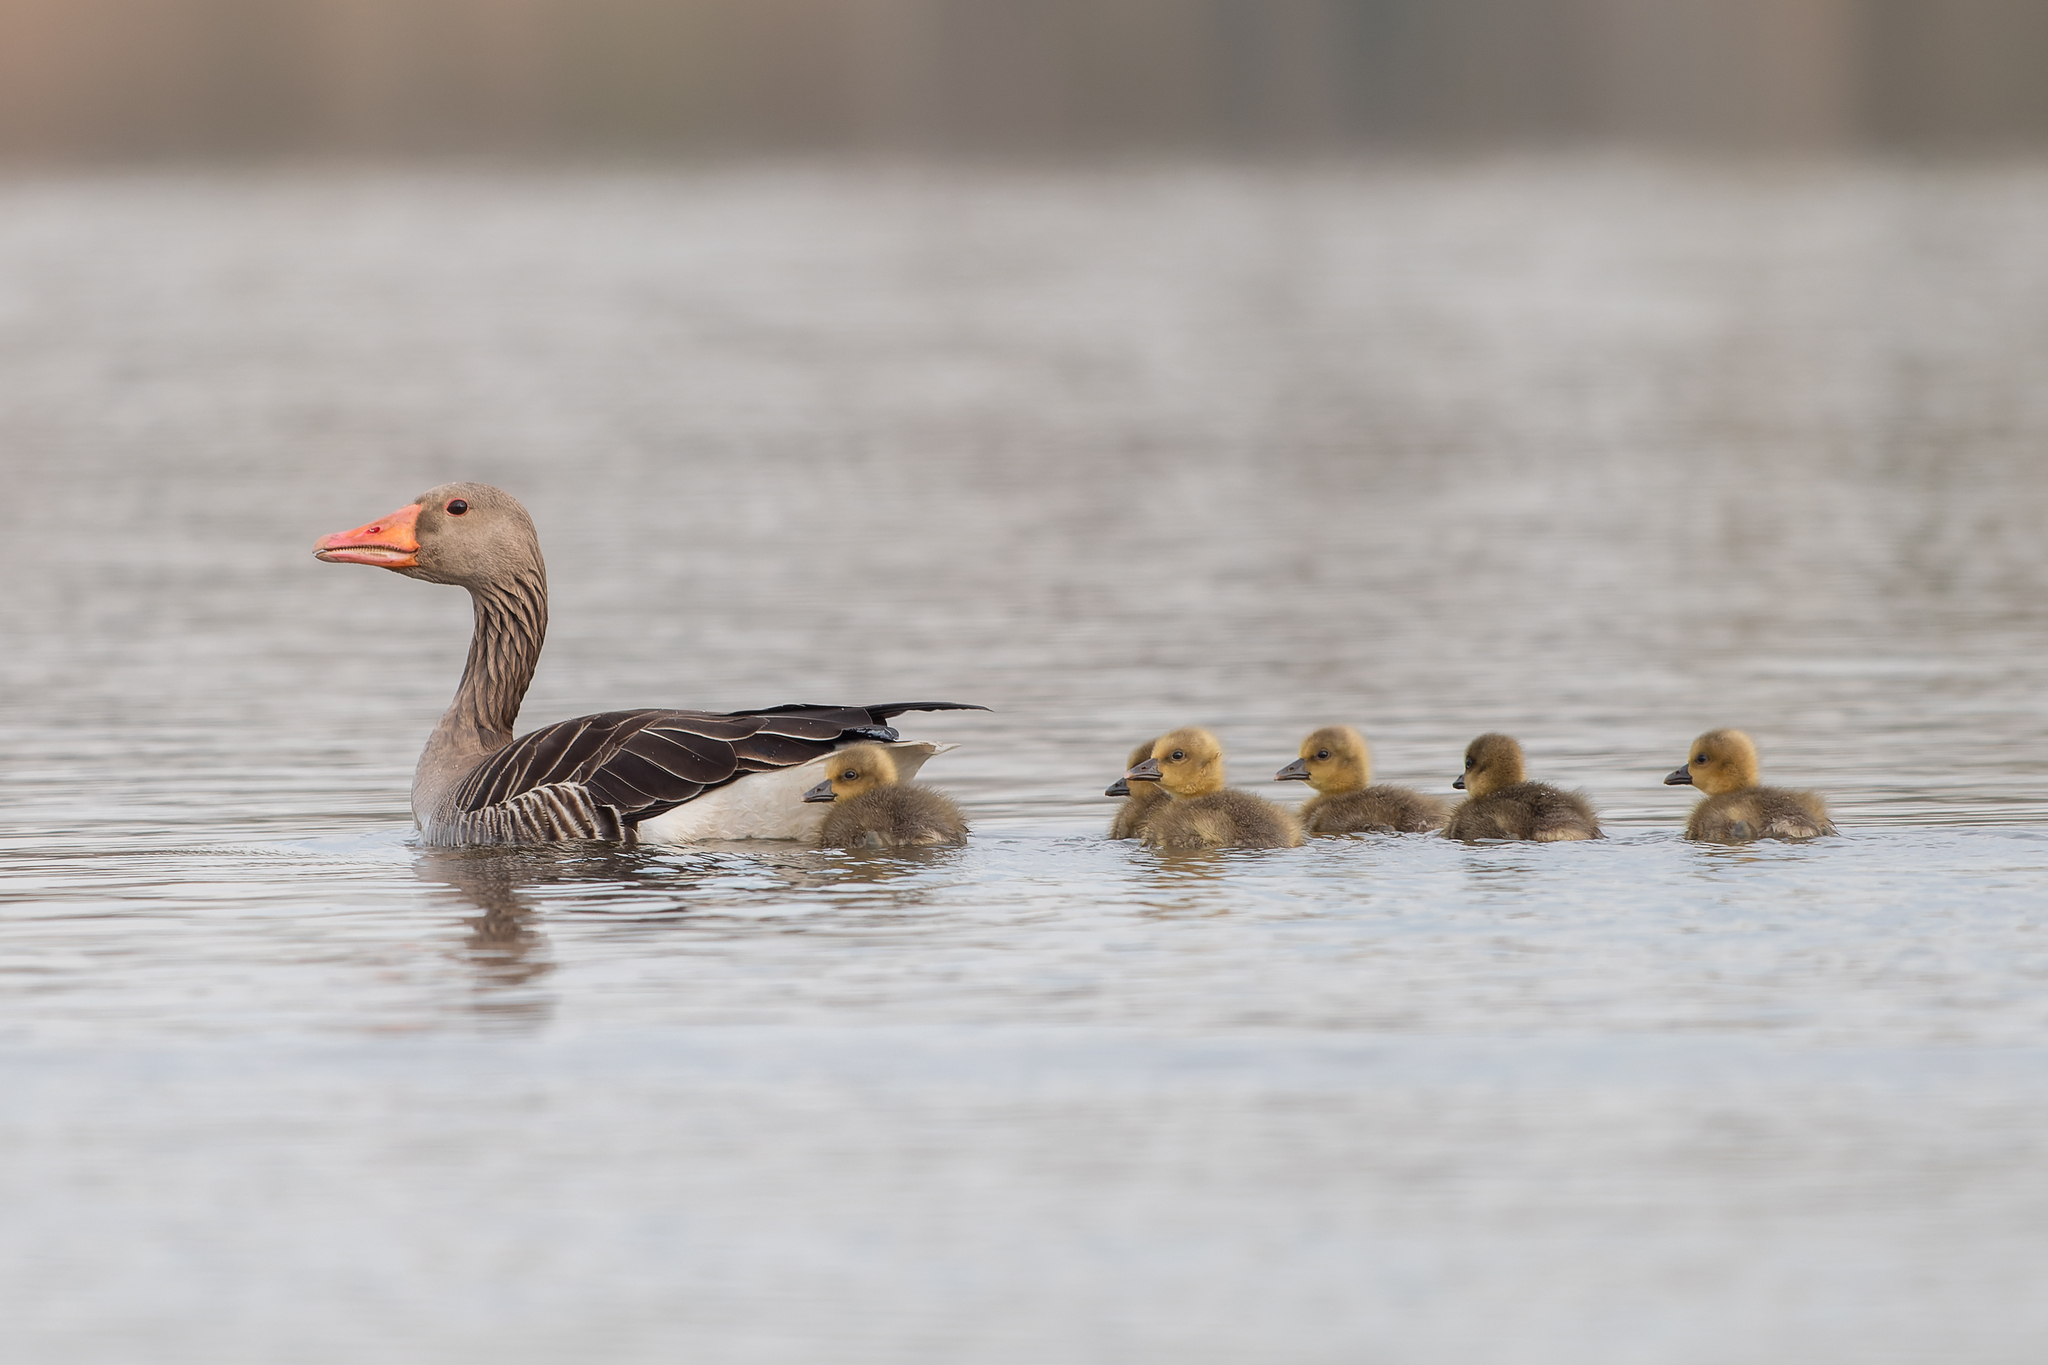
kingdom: Animalia
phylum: Chordata
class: Aves
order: Anseriformes
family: Anatidae
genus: Anser
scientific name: Anser anser
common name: Greylag goose
